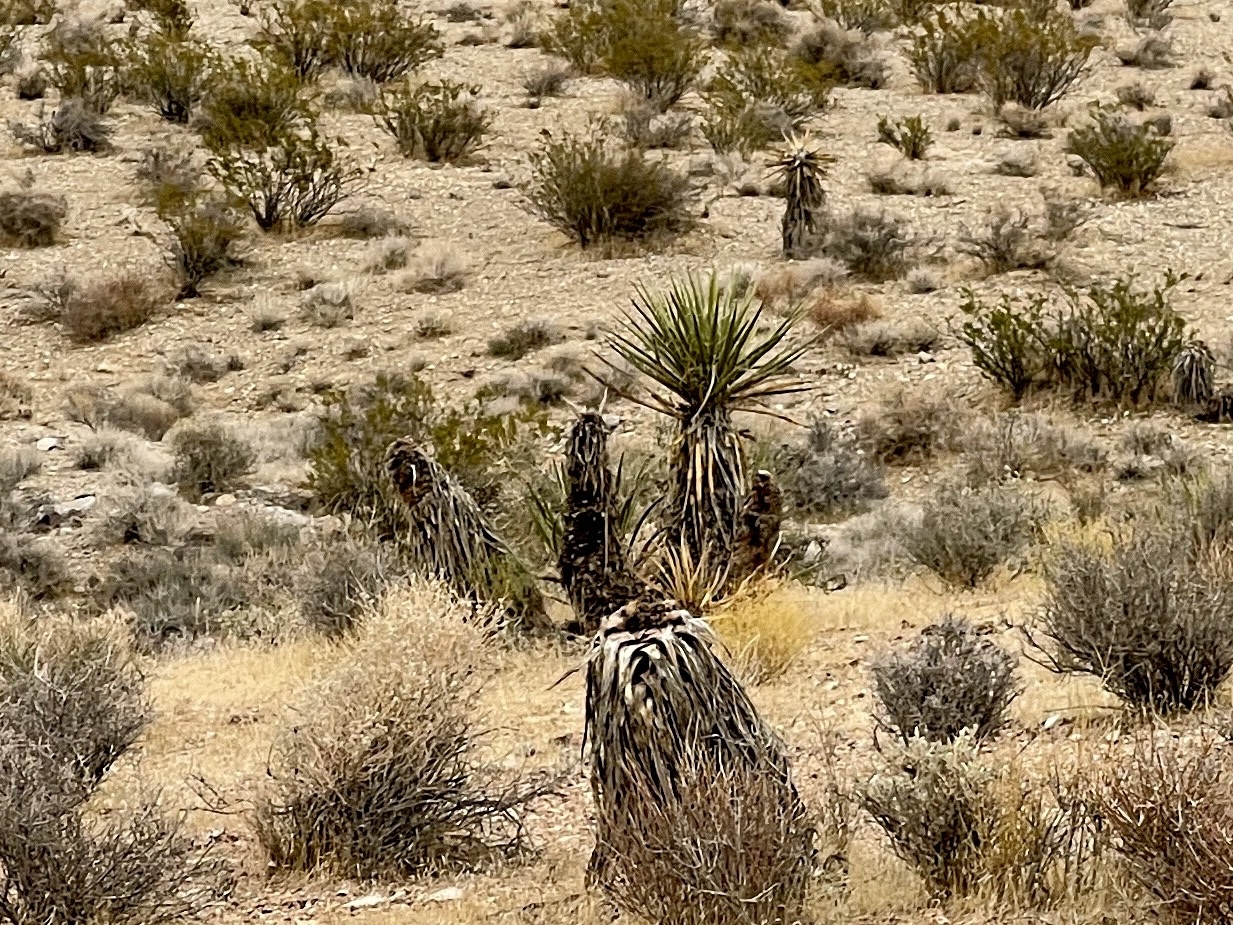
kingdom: Plantae
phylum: Tracheophyta
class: Liliopsida
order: Asparagales
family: Asparagaceae
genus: Yucca
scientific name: Yucca schidigera
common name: Mojave yucca
